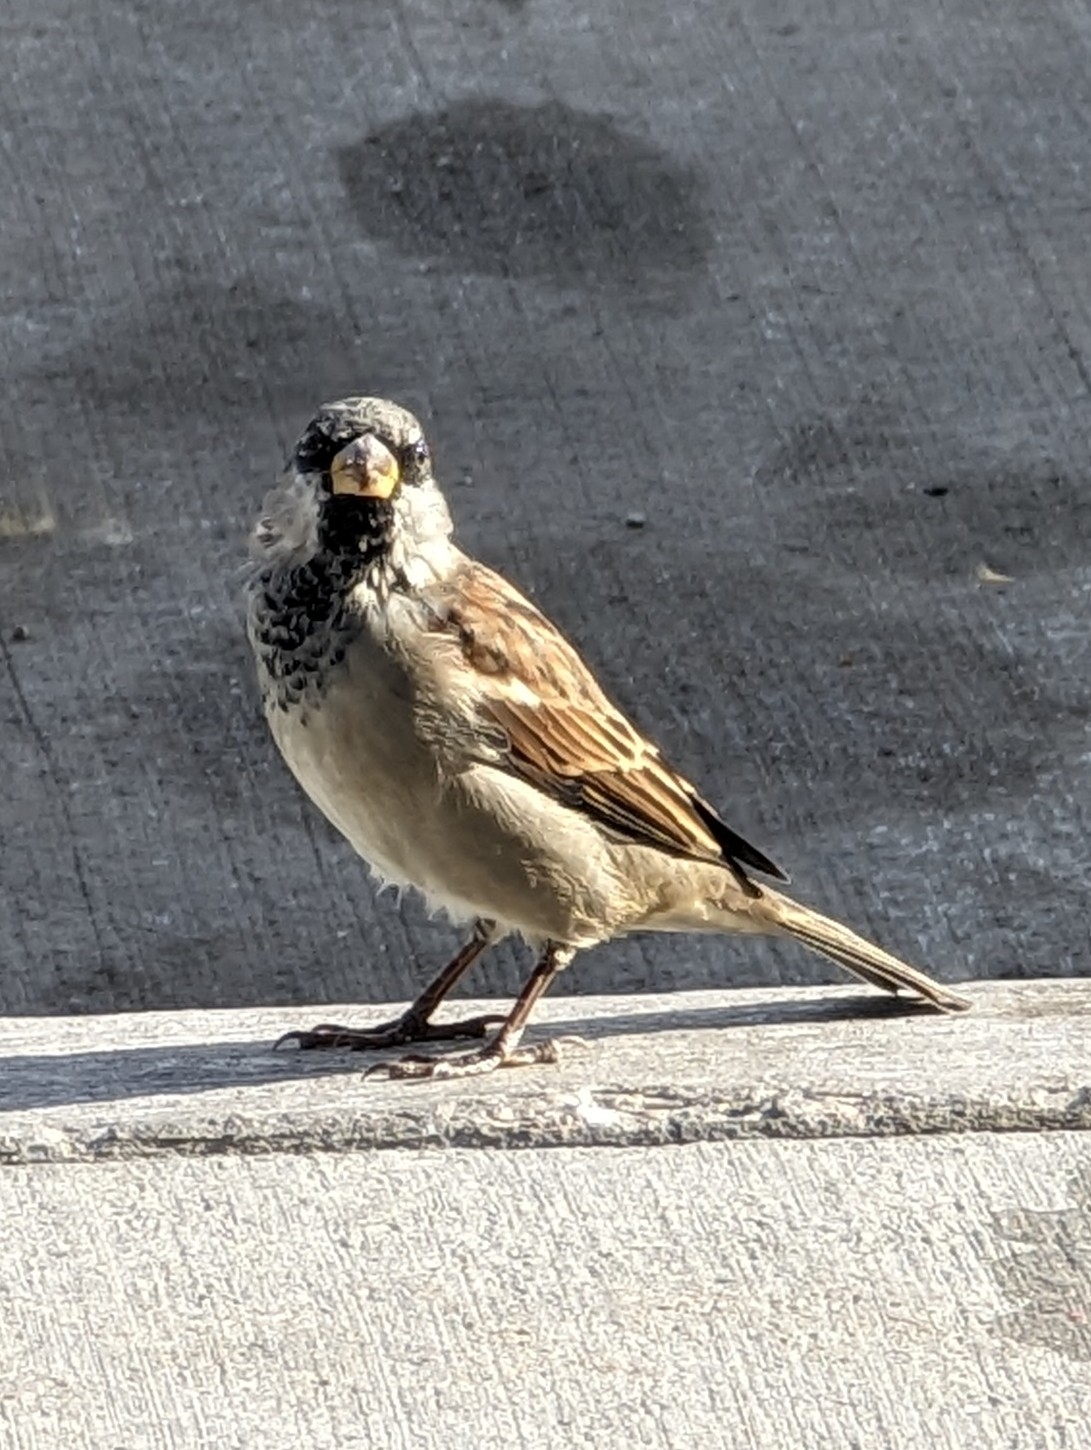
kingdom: Animalia
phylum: Chordata
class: Aves
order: Passeriformes
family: Passeridae
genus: Passer
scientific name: Passer domesticus
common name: House sparrow
